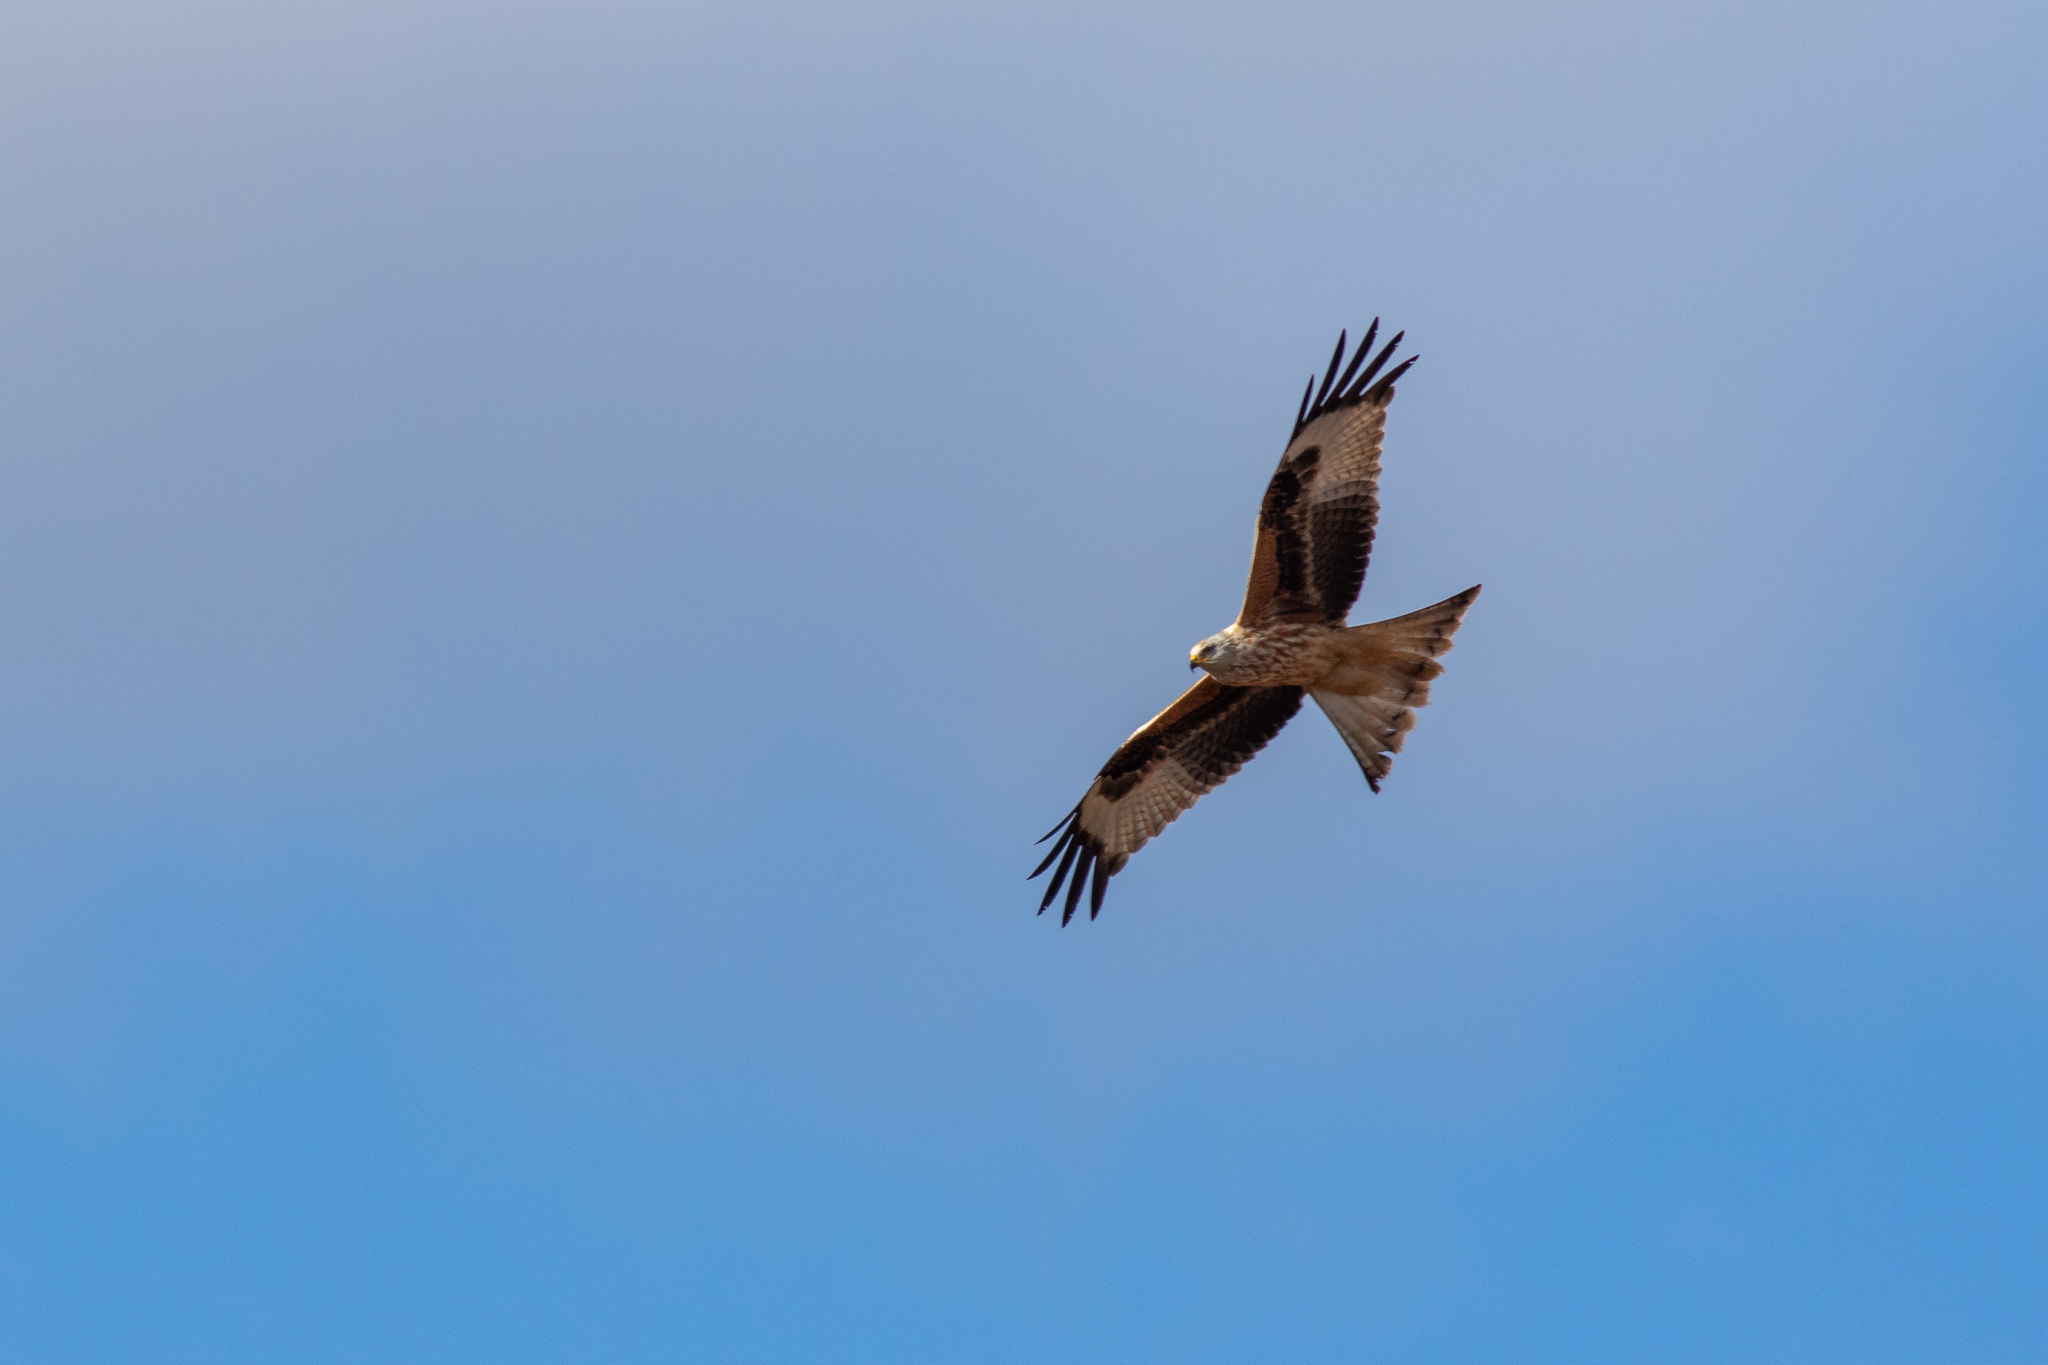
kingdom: Animalia
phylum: Chordata
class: Aves
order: Accipitriformes
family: Accipitridae
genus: Milvus
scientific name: Milvus milvus
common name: Red kite
